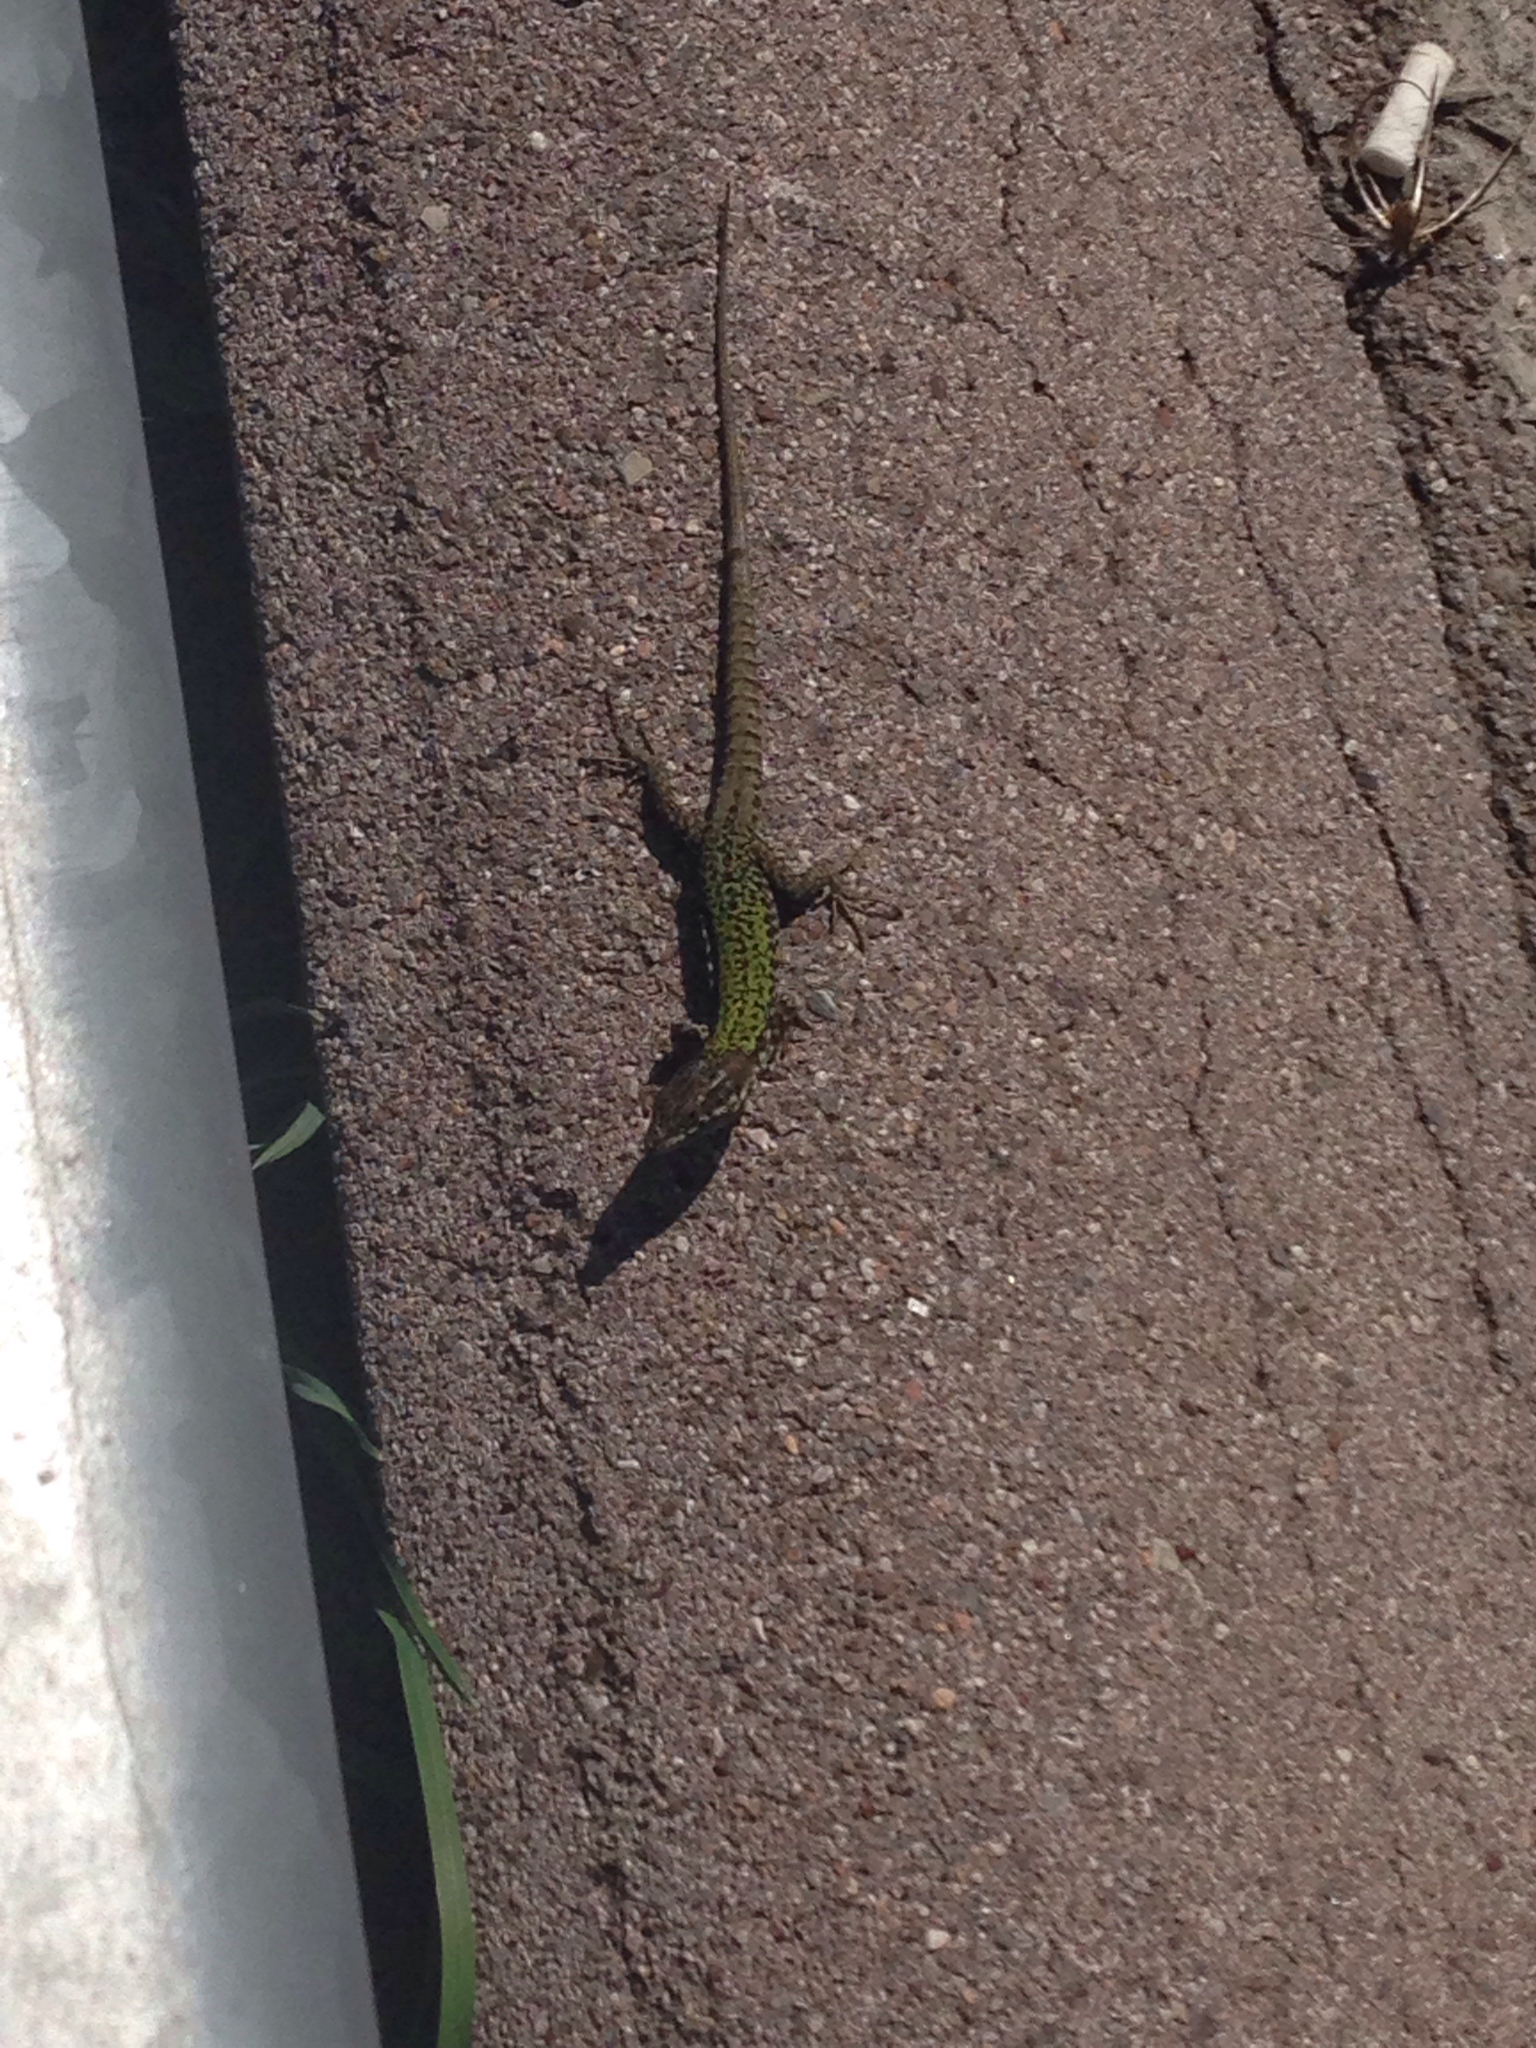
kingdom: Animalia
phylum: Chordata
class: Squamata
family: Lacertidae
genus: Podarcis
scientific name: Podarcis muralis
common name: Common wall lizard
